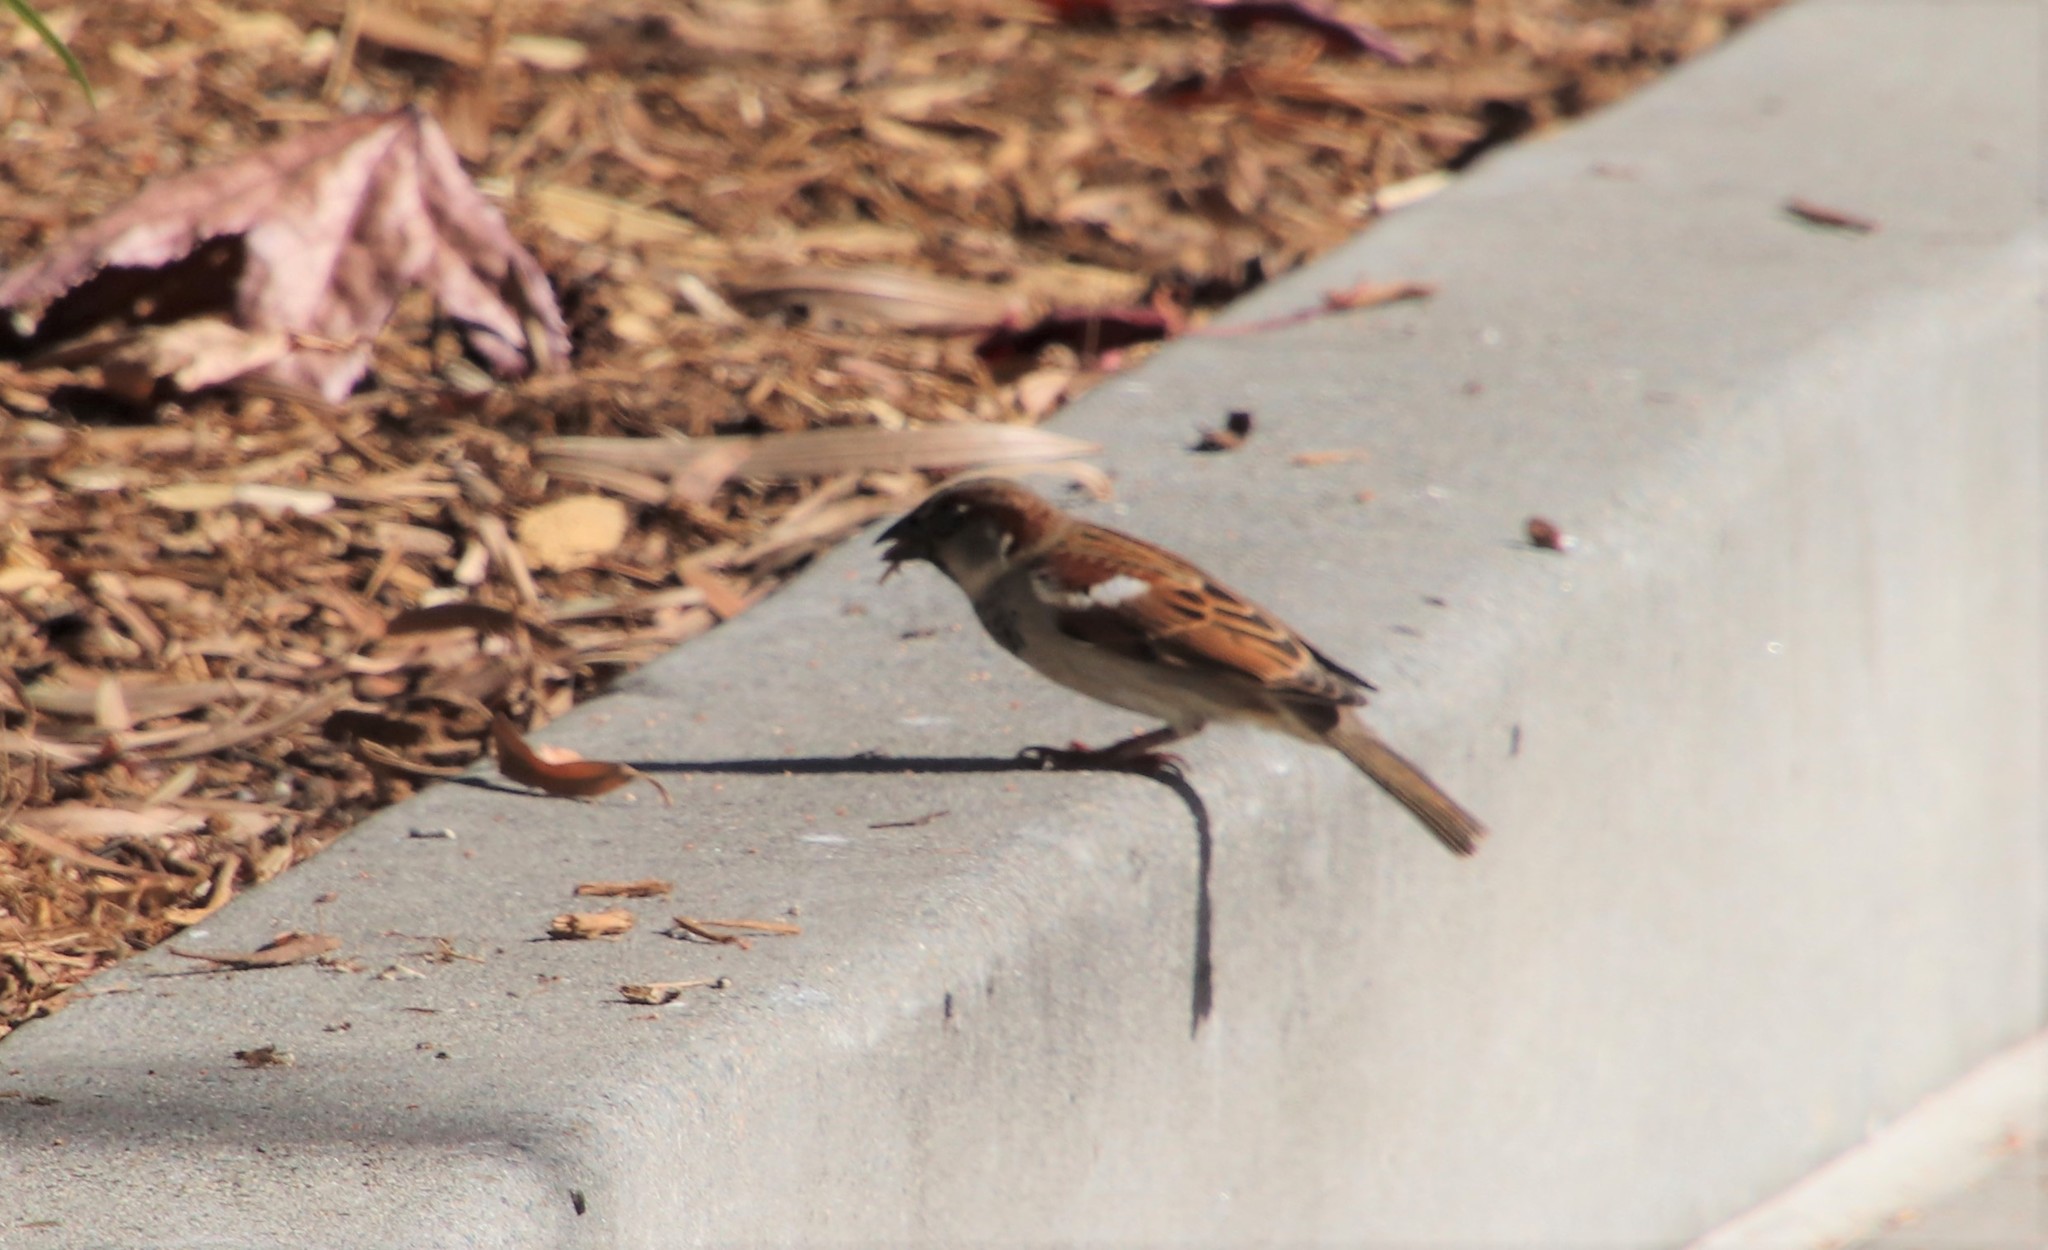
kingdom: Animalia
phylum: Chordata
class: Aves
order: Passeriformes
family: Passeridae
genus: Passer
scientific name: Passer domesticus
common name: House sparrow
